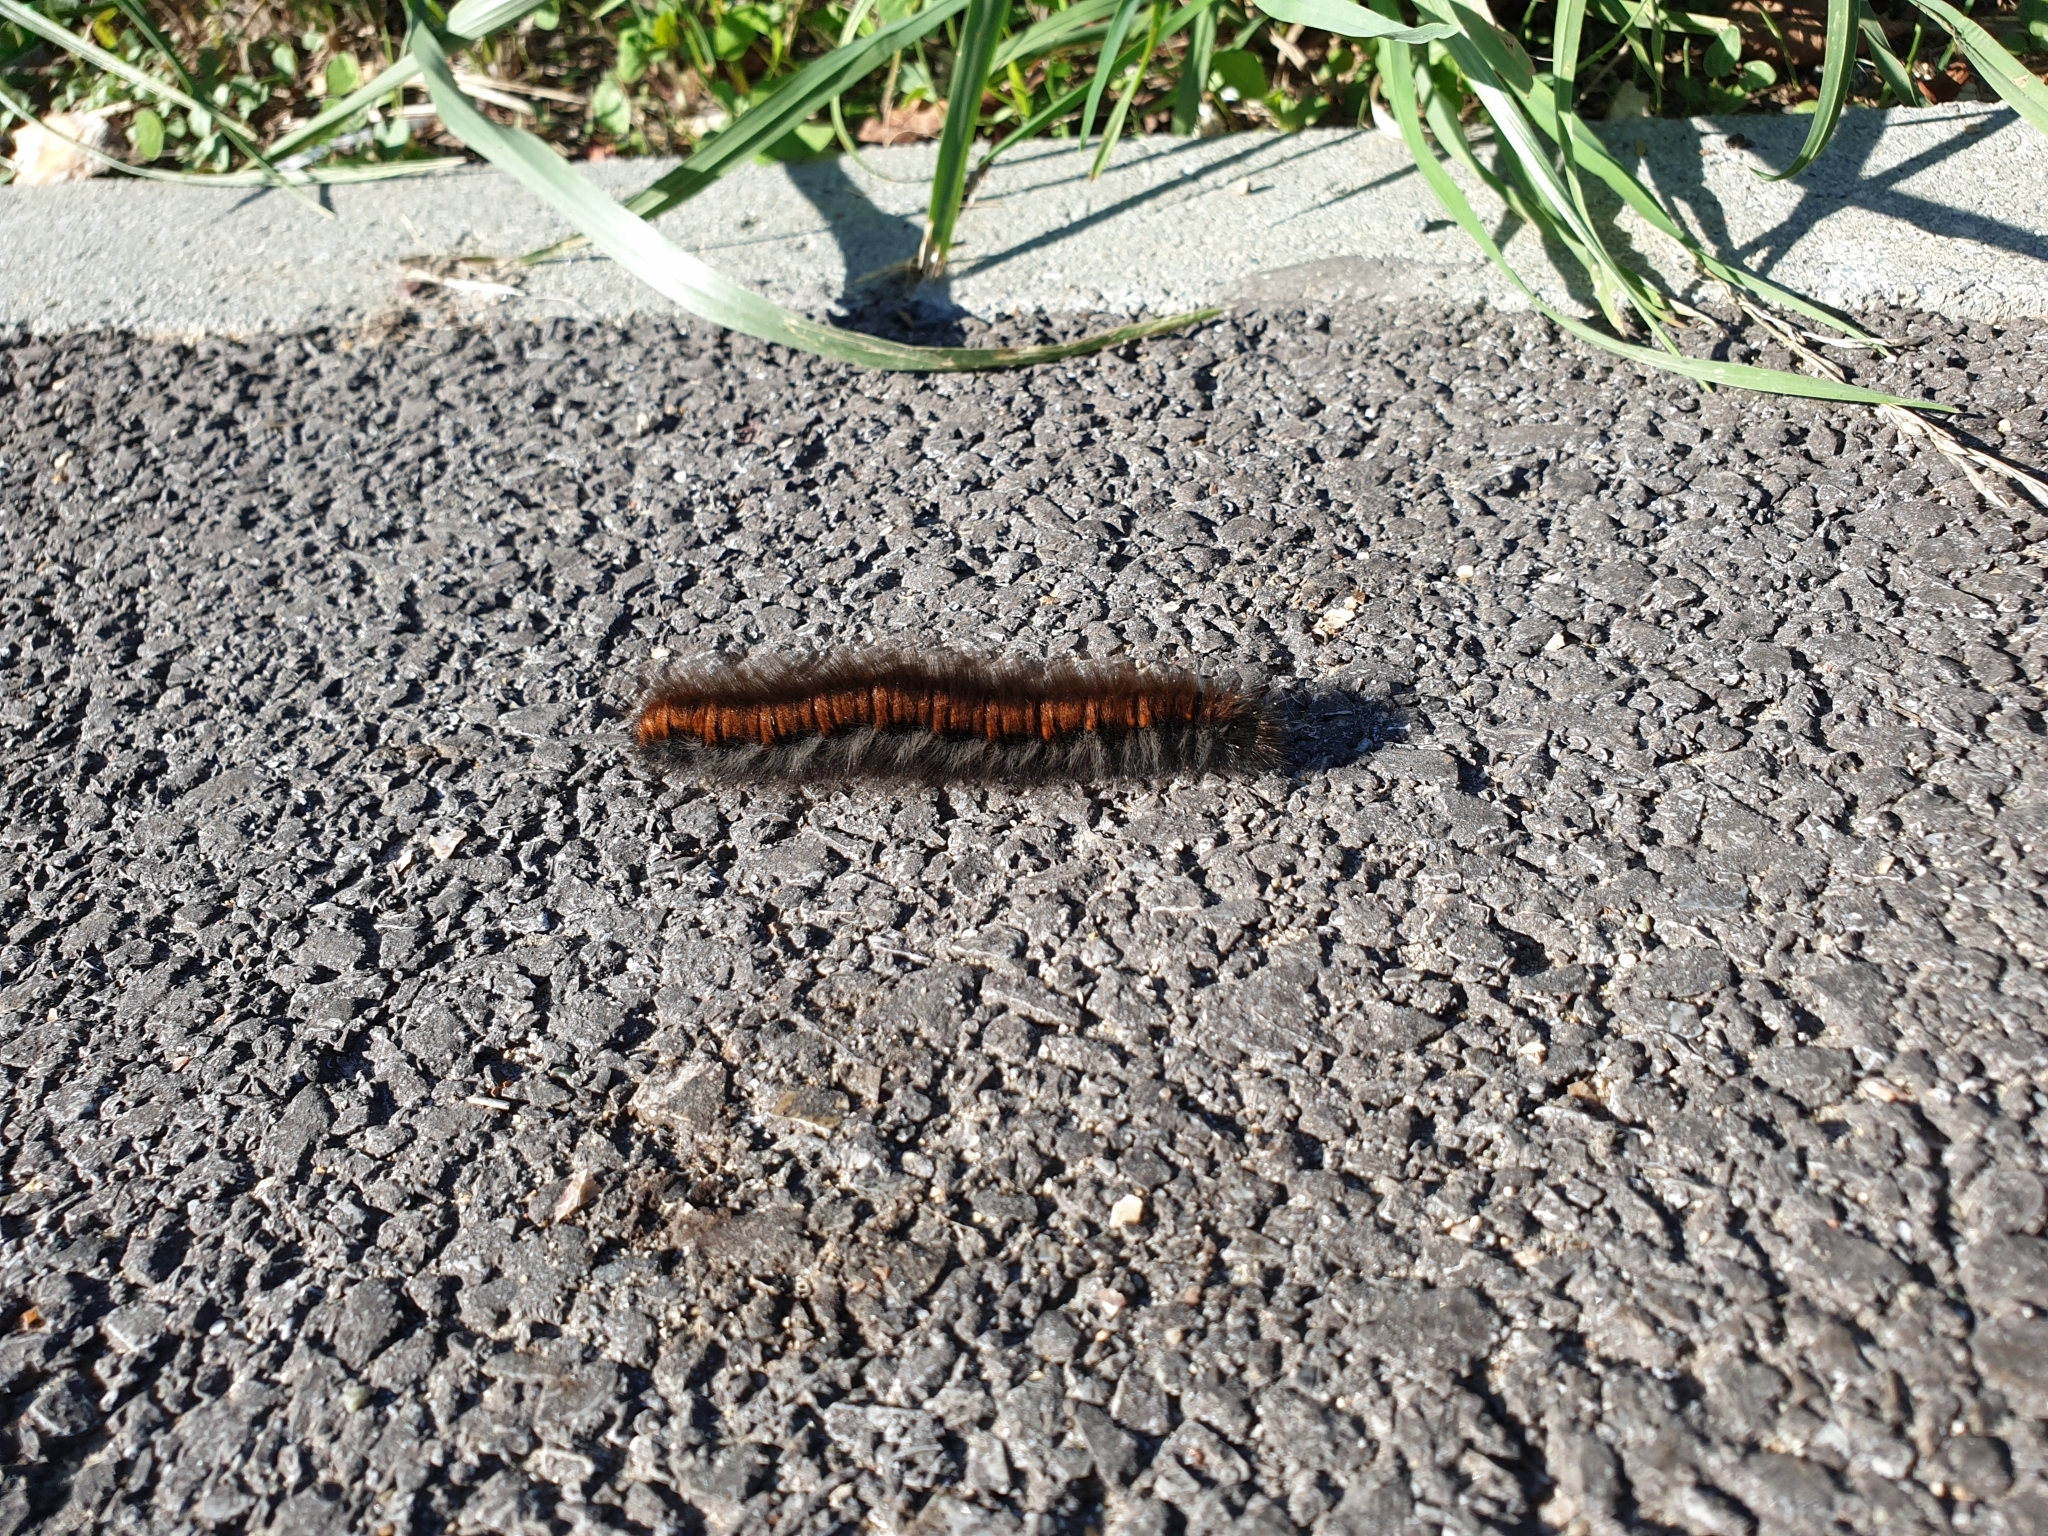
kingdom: Animalia
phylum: Arthropoda
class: Insecta
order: Lepidoptera
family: Lasiocampidae
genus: Macrothylacia
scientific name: Macrothylacia rubi
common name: Fox moth
